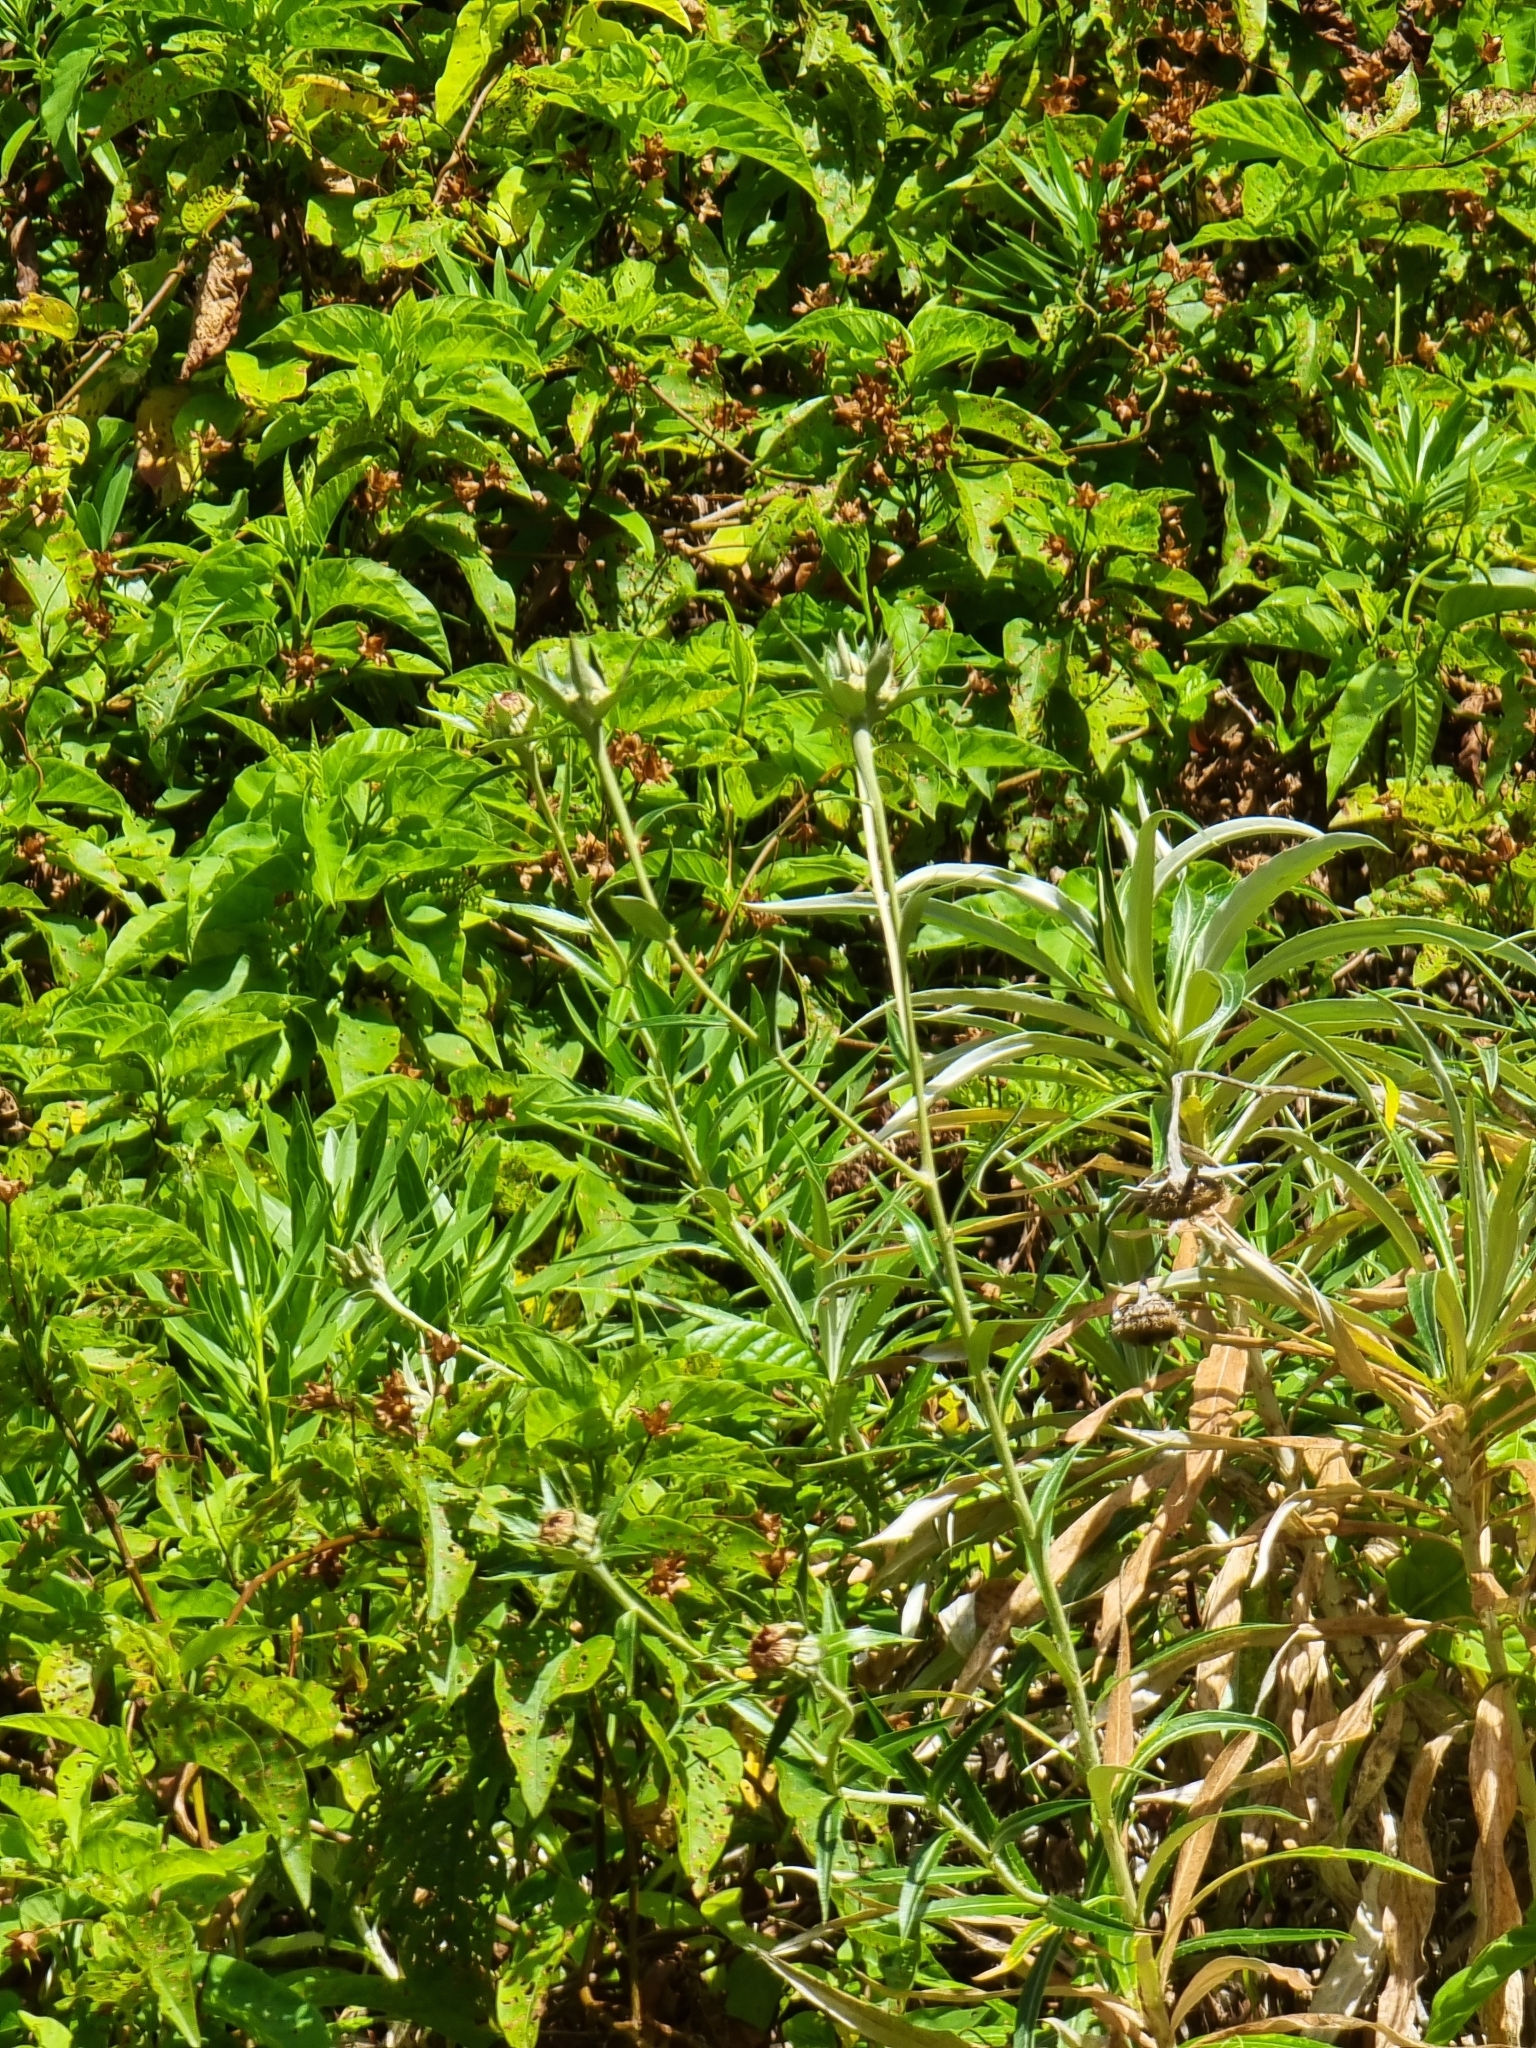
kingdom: Plantae
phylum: Tracheophyta
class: Magnoliopsida
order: Asterales
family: Asteraceae
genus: Carlina
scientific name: Carlina salicifolia
